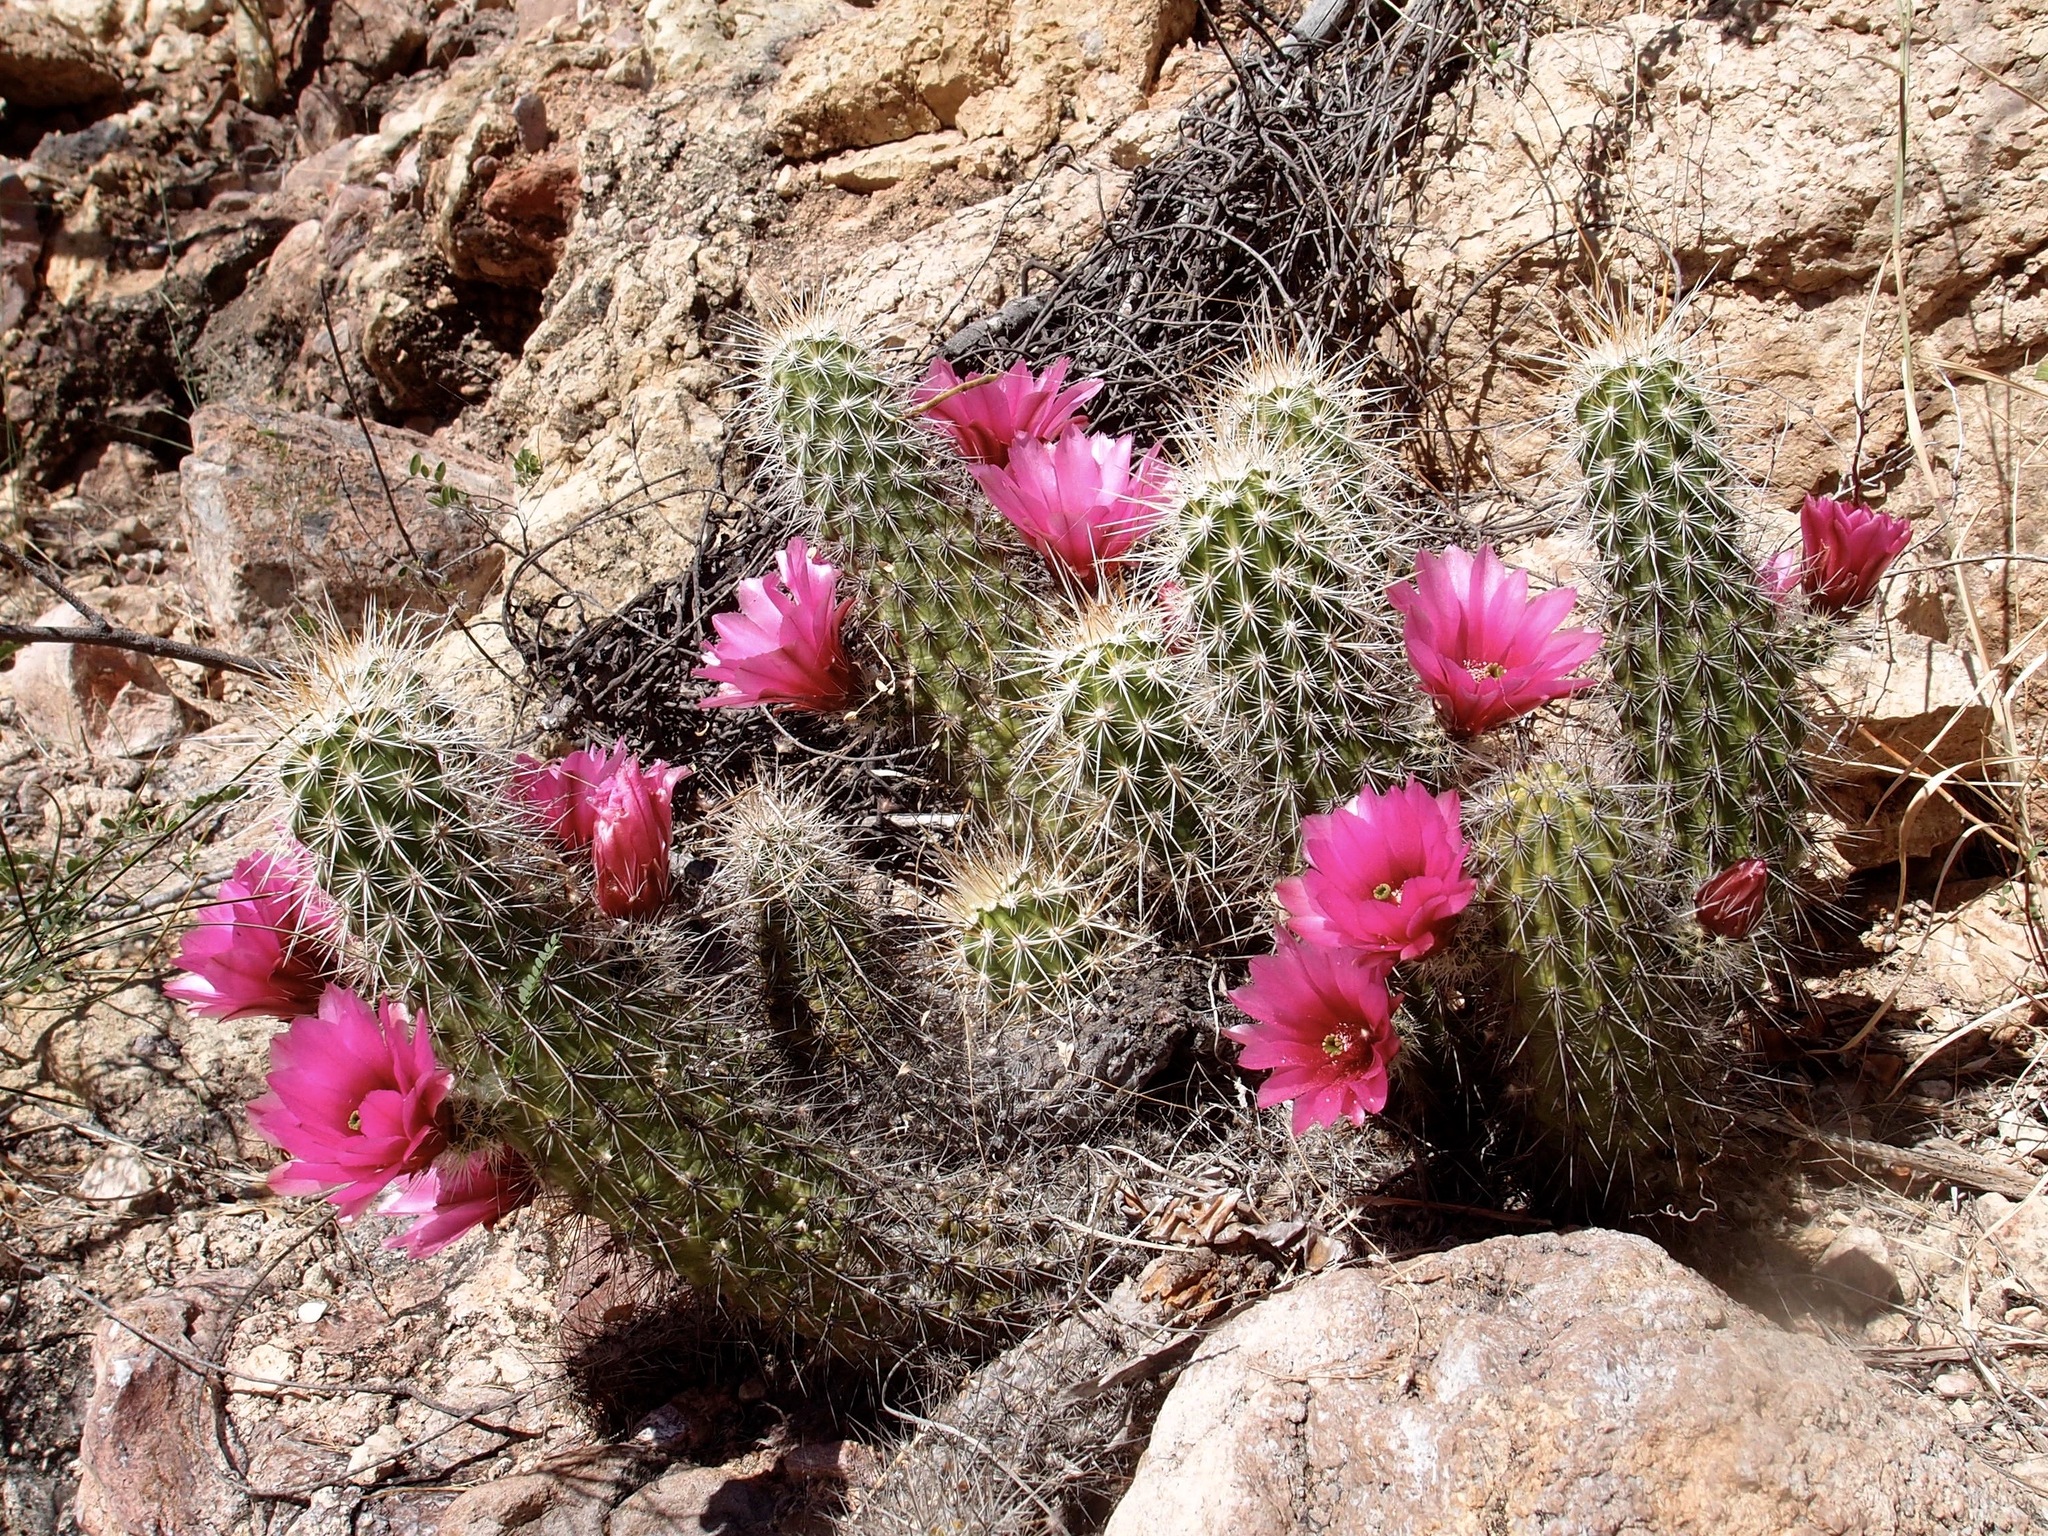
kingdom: Plantae
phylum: Tracheophyta
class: Magnoliopsida
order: Caryophyllales
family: Cactaceae
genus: Echinocereus
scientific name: Echinocereus llanurensis
